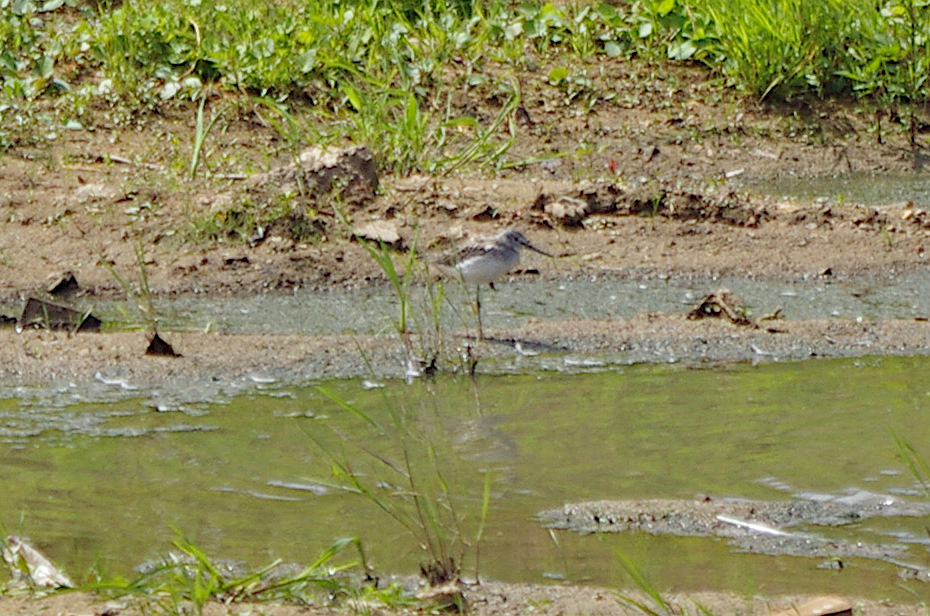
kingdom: Animalia
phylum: Chordata
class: Aves
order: Charadriiformes
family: Scolopacidae
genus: Tringa
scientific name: Tringa nebularia
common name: Common greenshank
